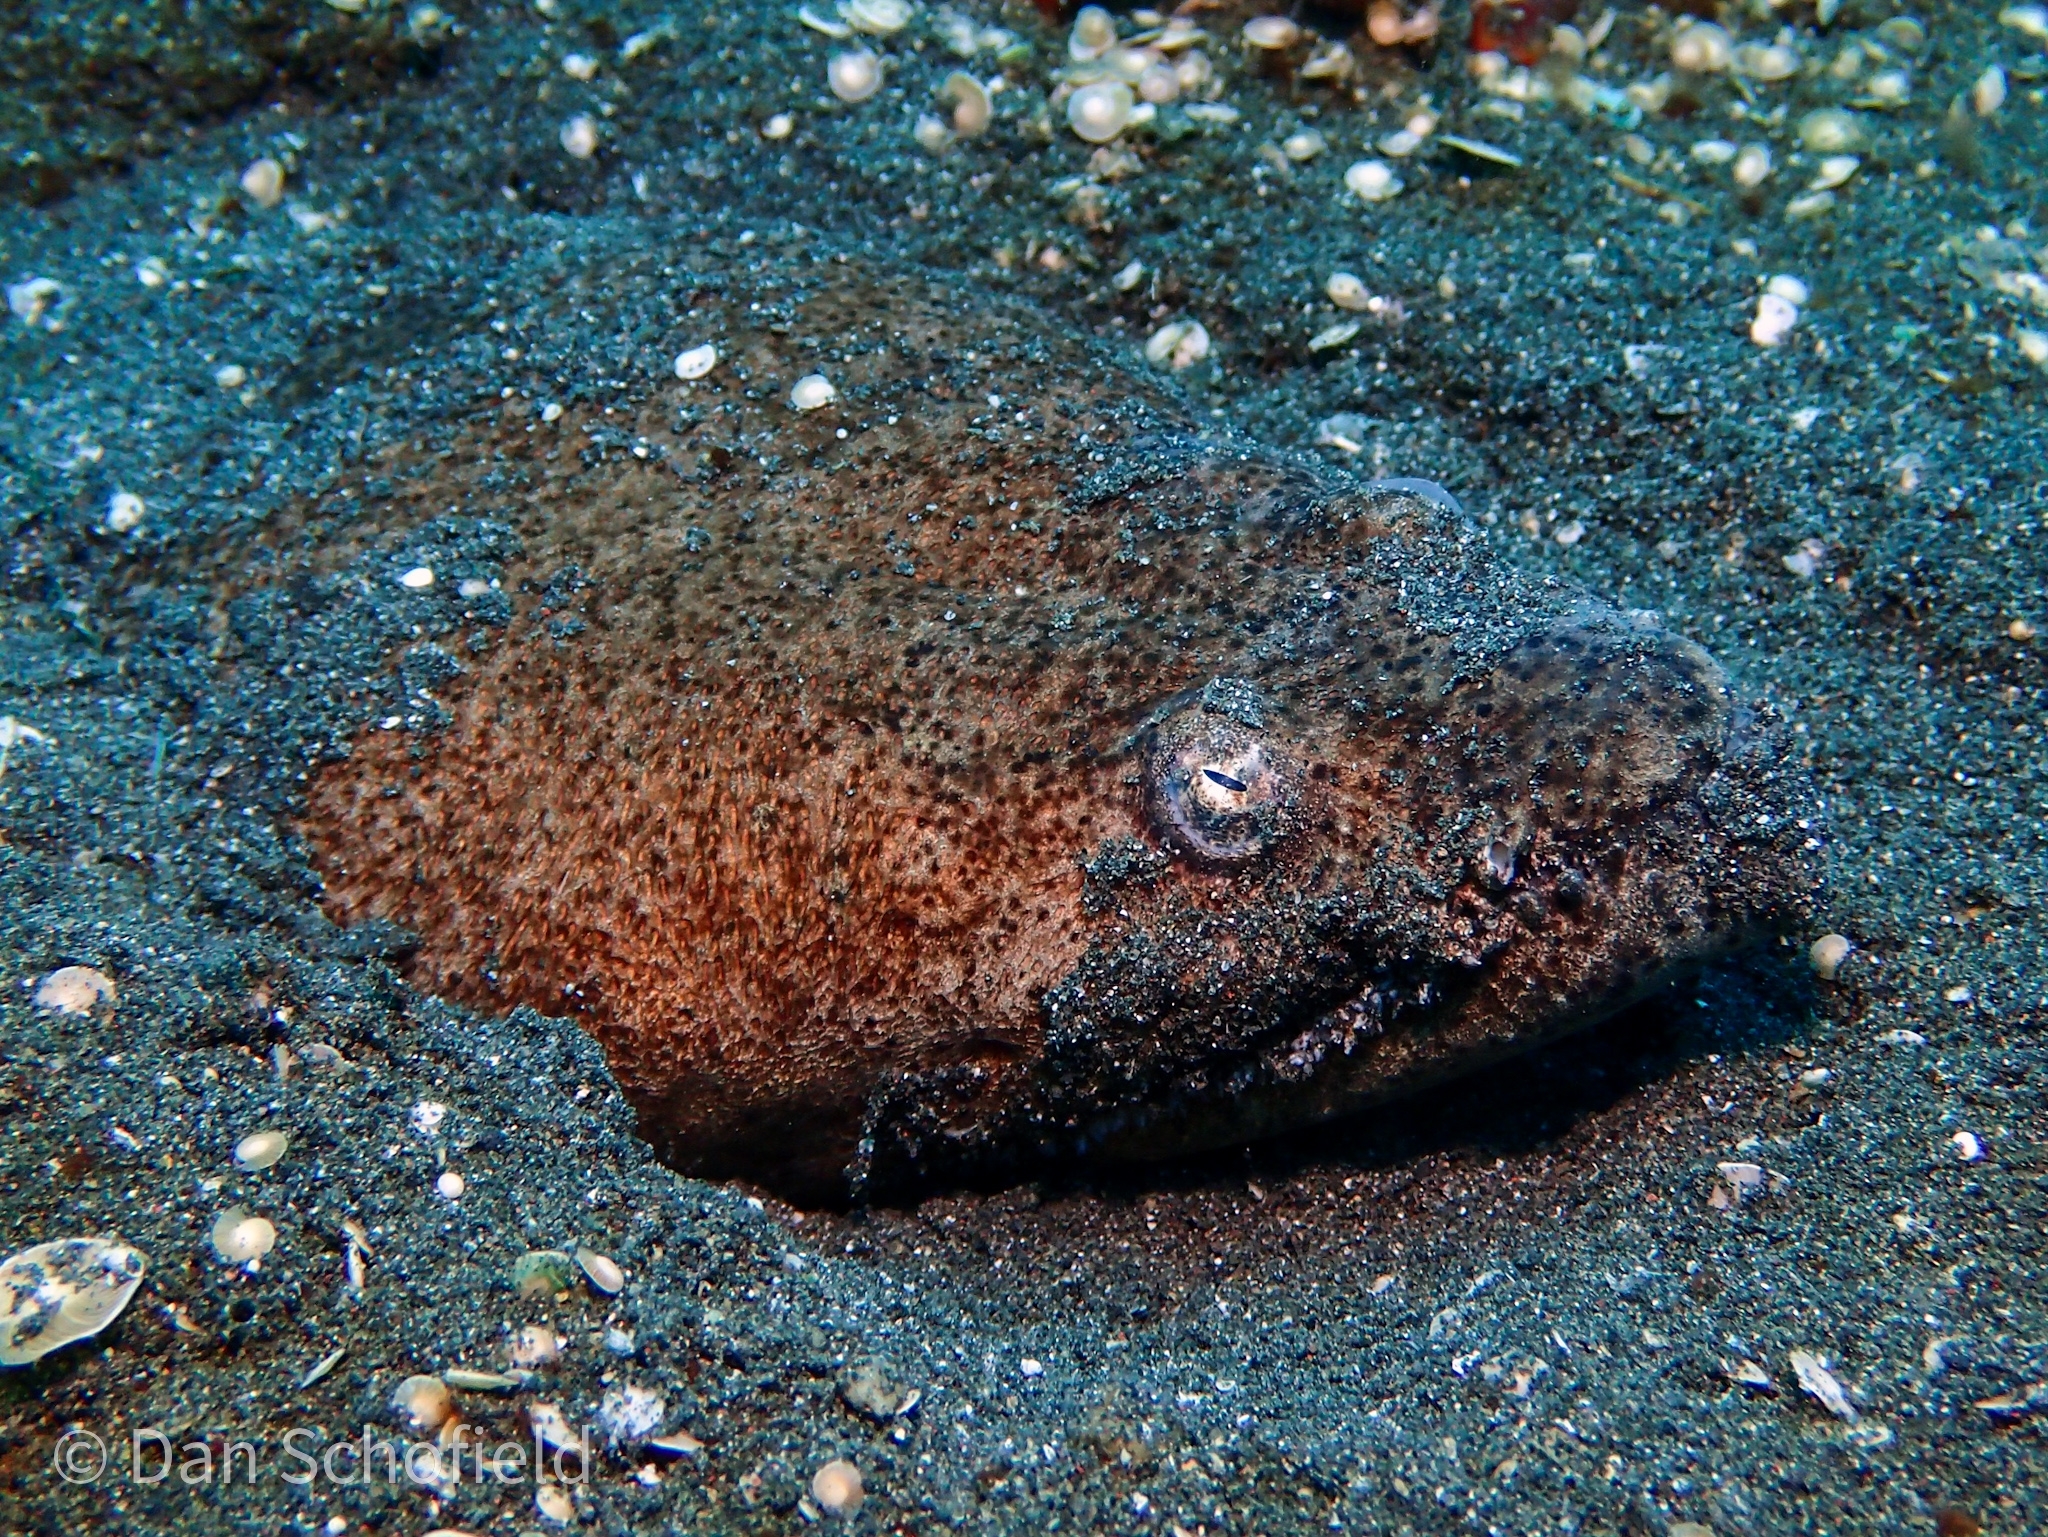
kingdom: Animalia
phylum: Chordata
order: Anguilliformes
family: Ophichthidae
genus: Brachysomophis
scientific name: Brachysomophis cirrocheilos
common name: Stargazer snake eel
